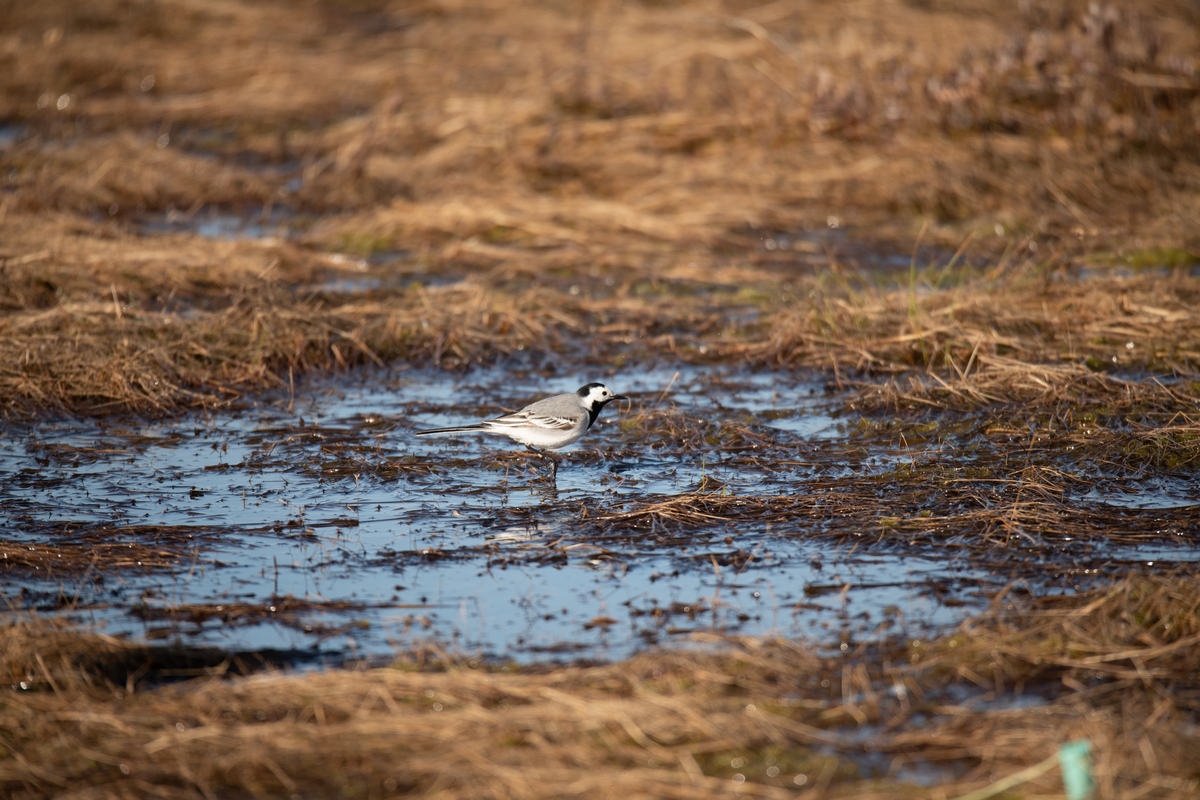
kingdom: Animalia
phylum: Chordata
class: Aves
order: Passeriformes
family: Motacillidae
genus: Motacilla
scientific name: Motacilla alba
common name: White wagtail
